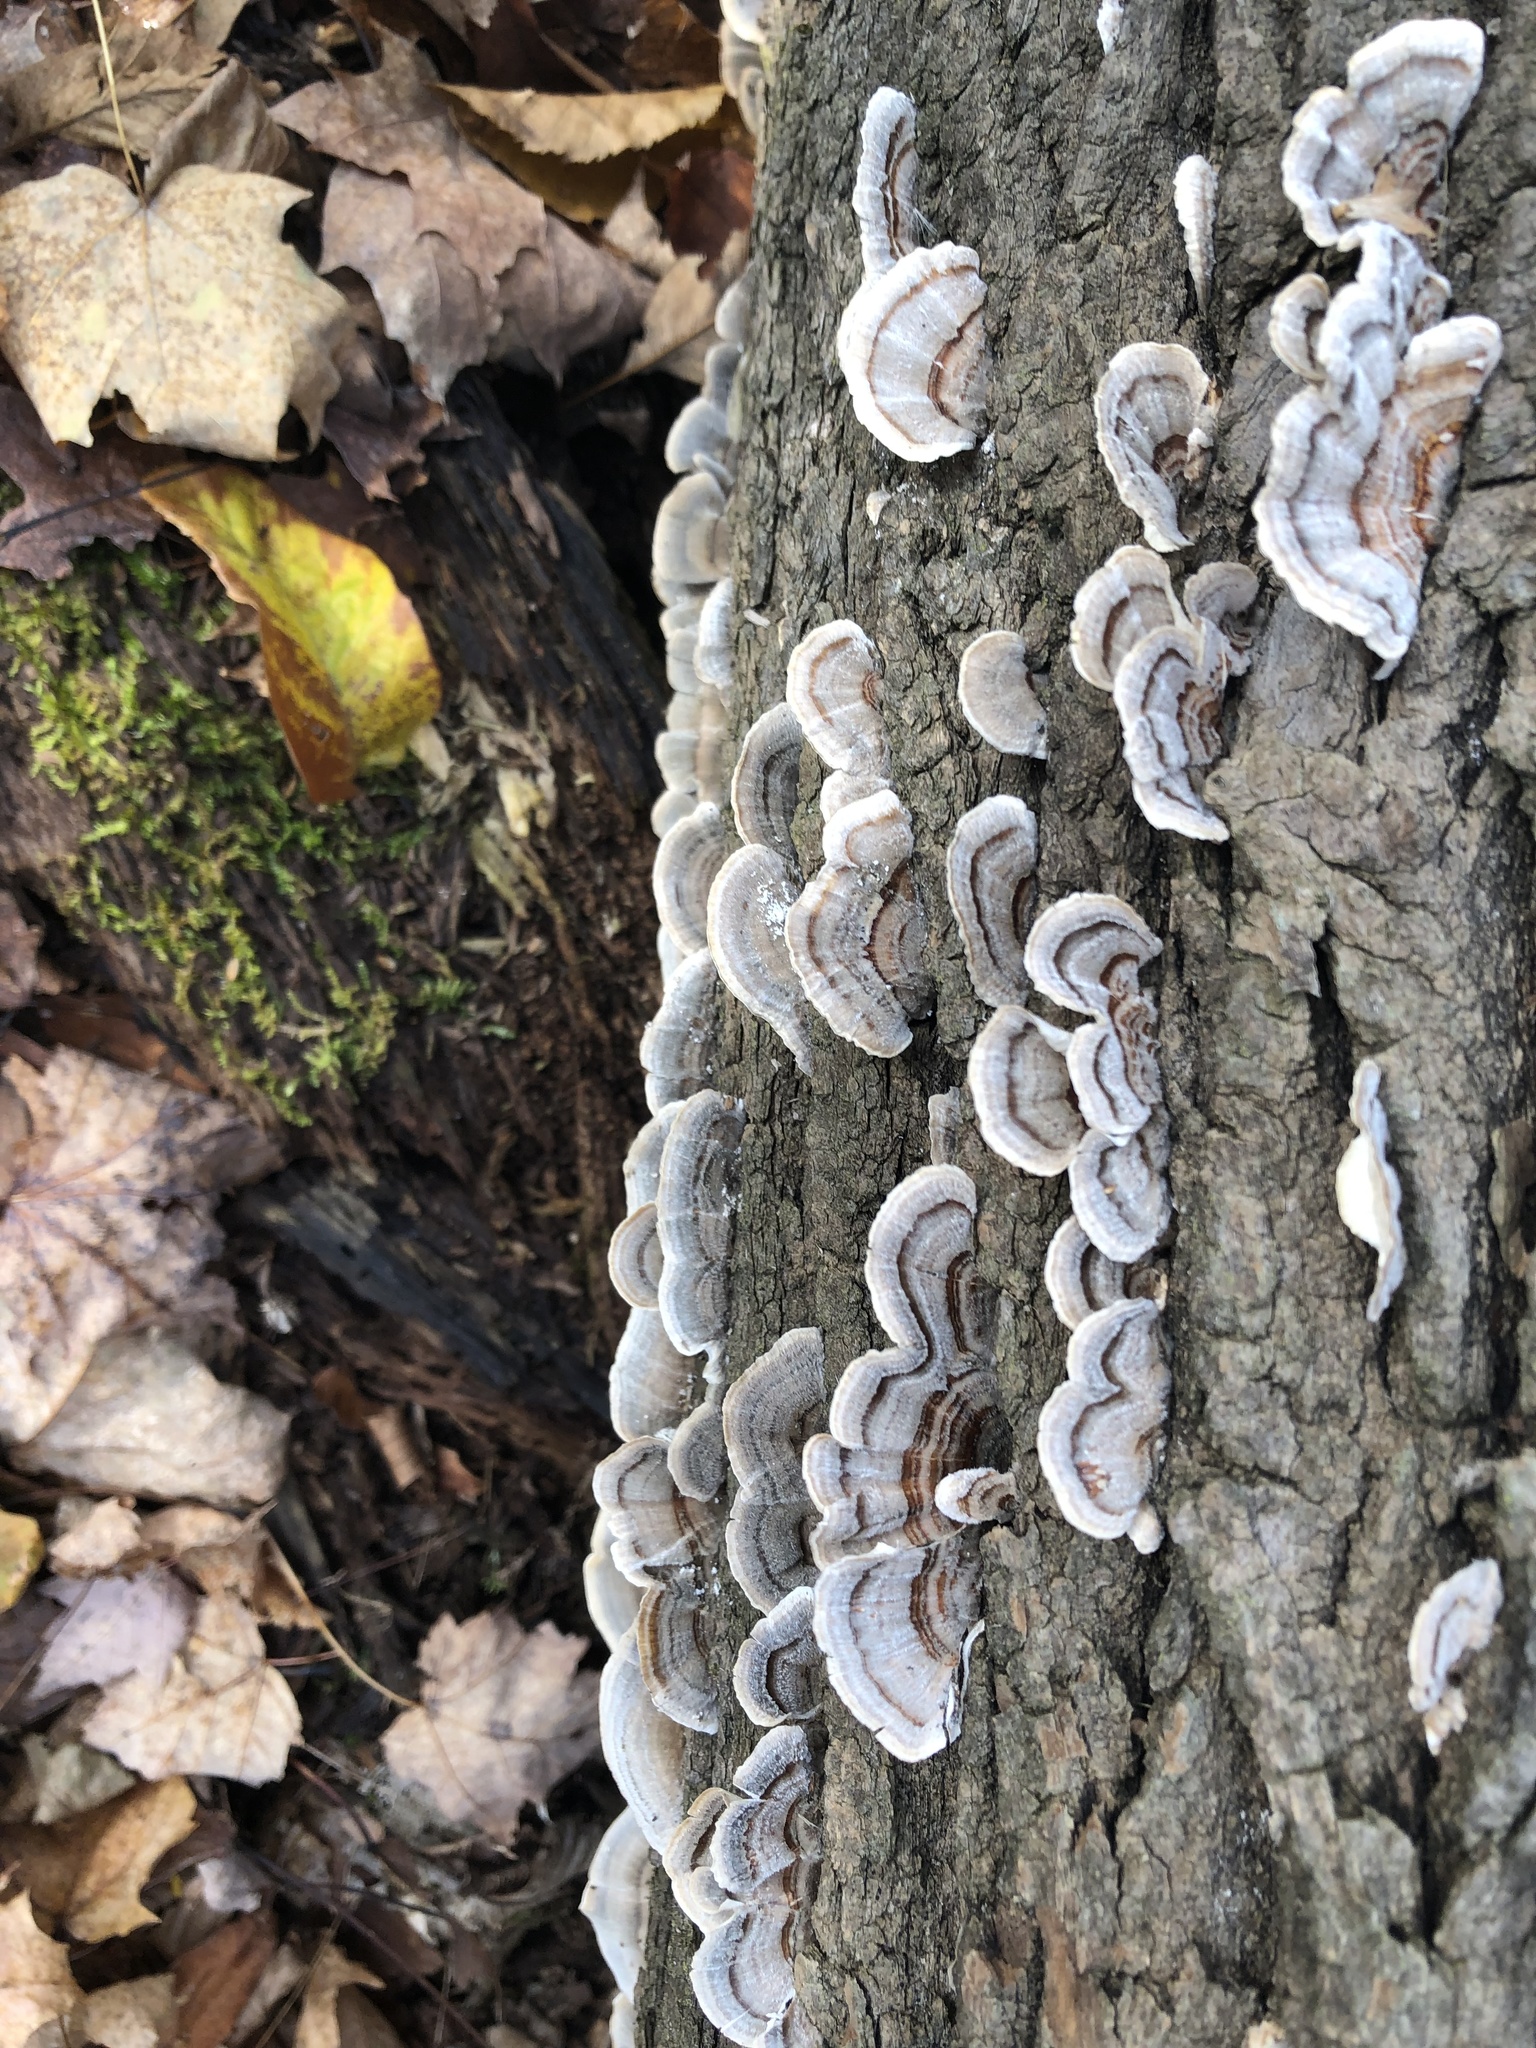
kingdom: Fungi
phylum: Basidiomycota
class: Agaricomycetes
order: Polyporales
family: Polyporaceae
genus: Trametes
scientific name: Trametes versicolor
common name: Turkeytail
